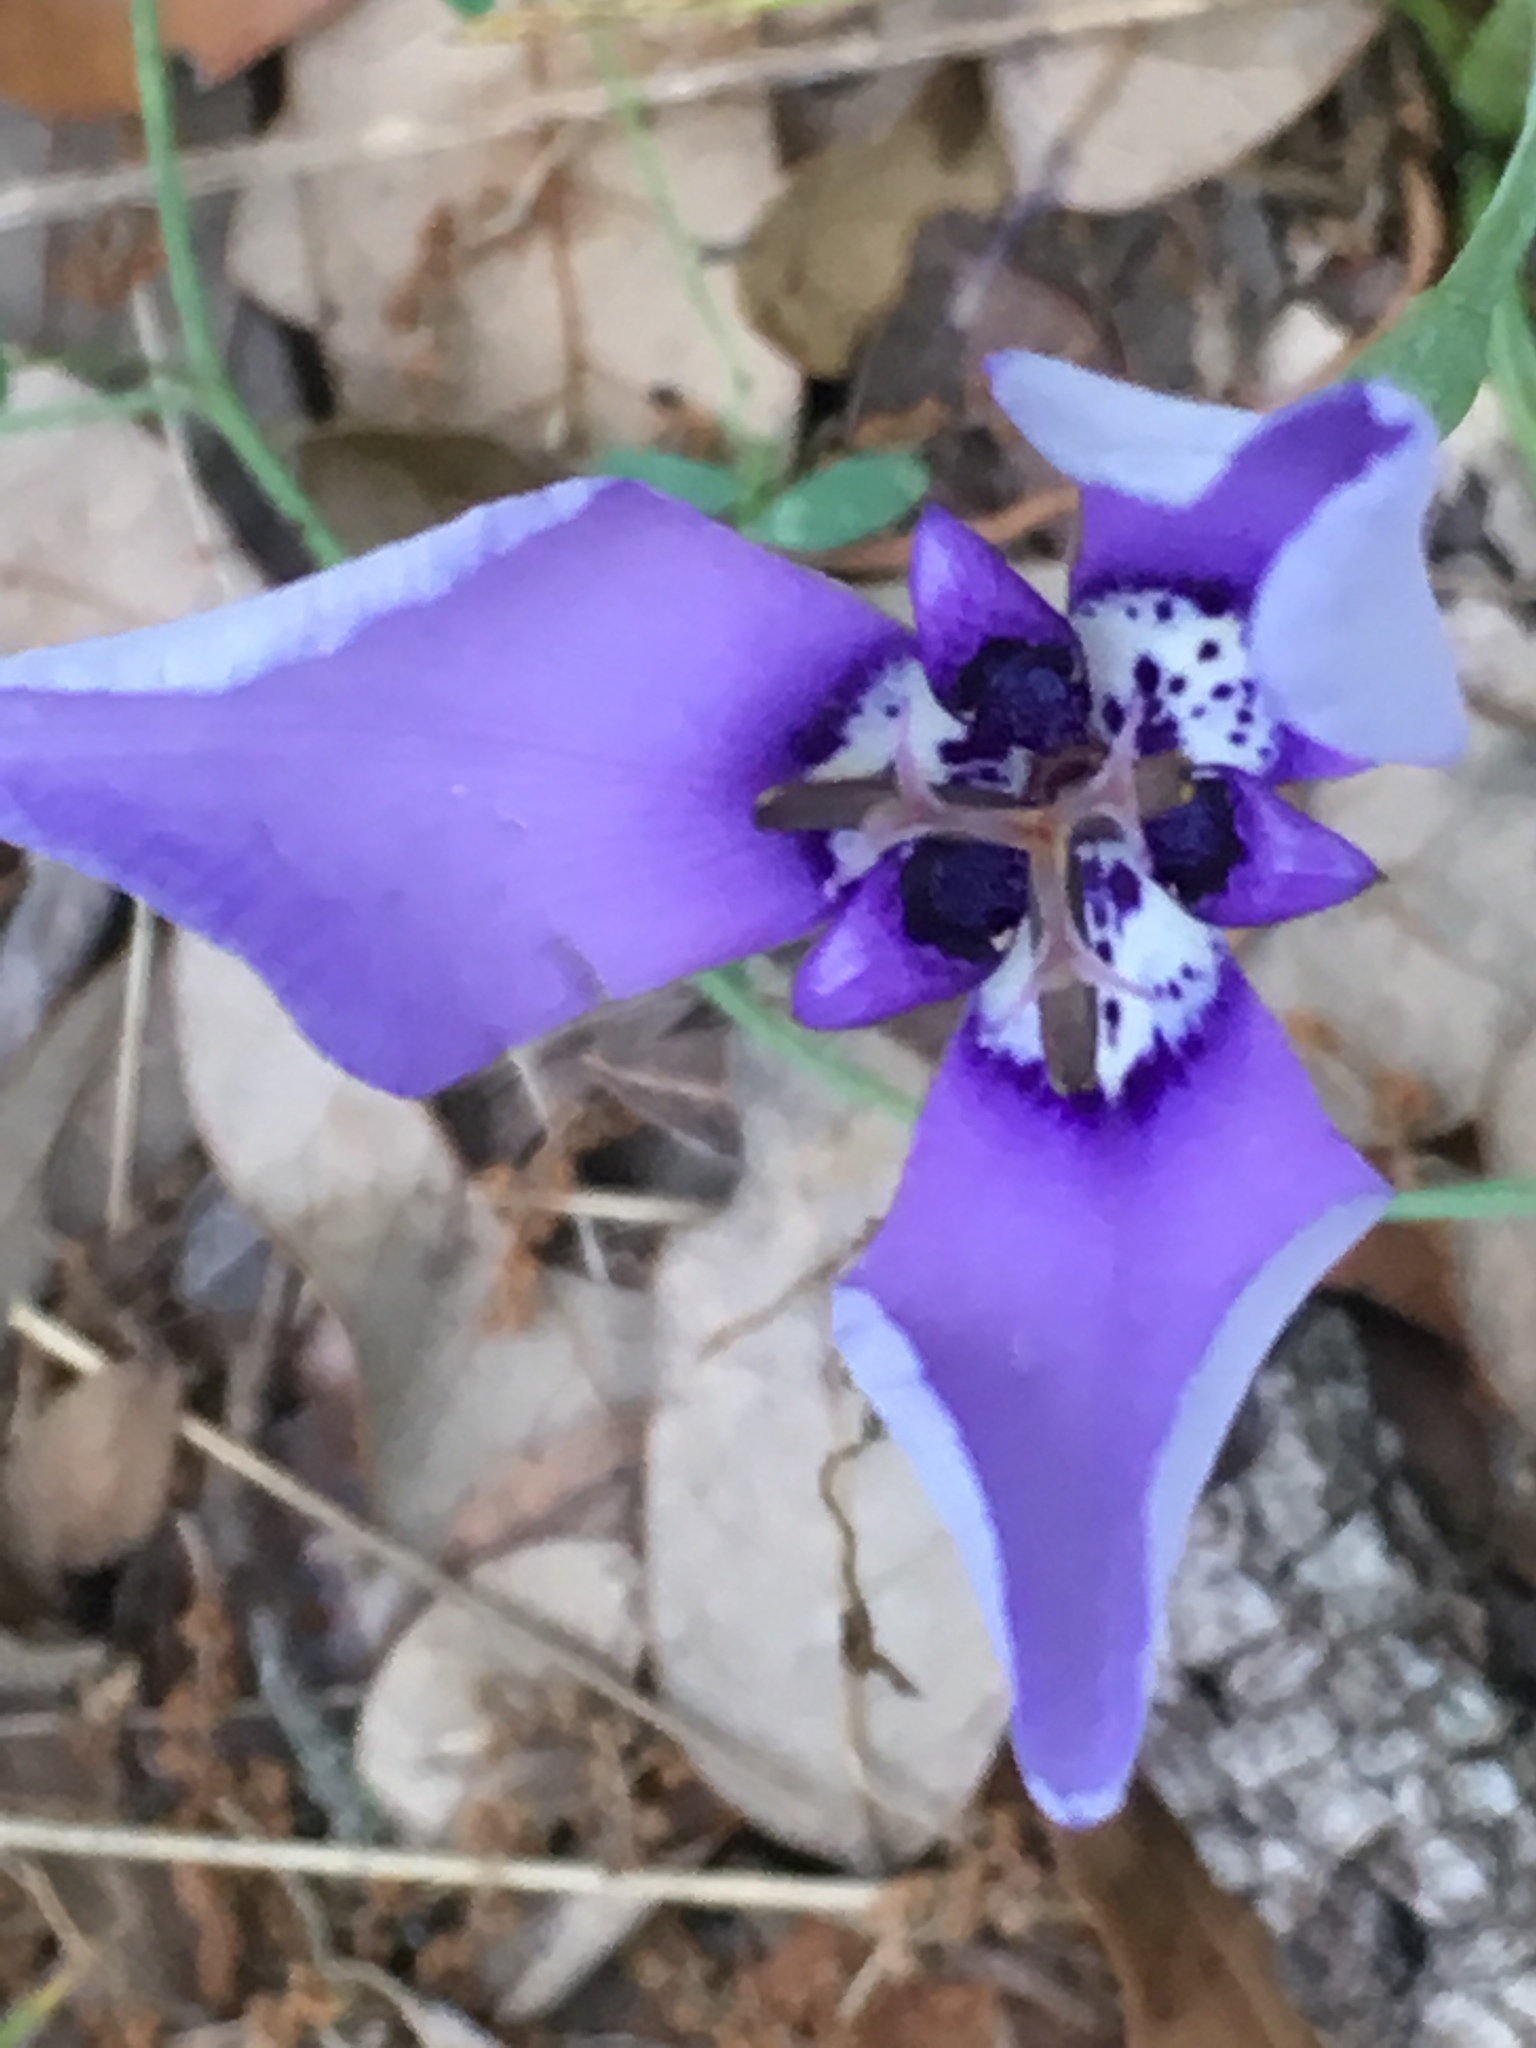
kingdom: Plantae
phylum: Tracheophyta
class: Liliopsida
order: Asparagales
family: Iridaceae
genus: Herbertia
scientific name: Herbertia lahue
